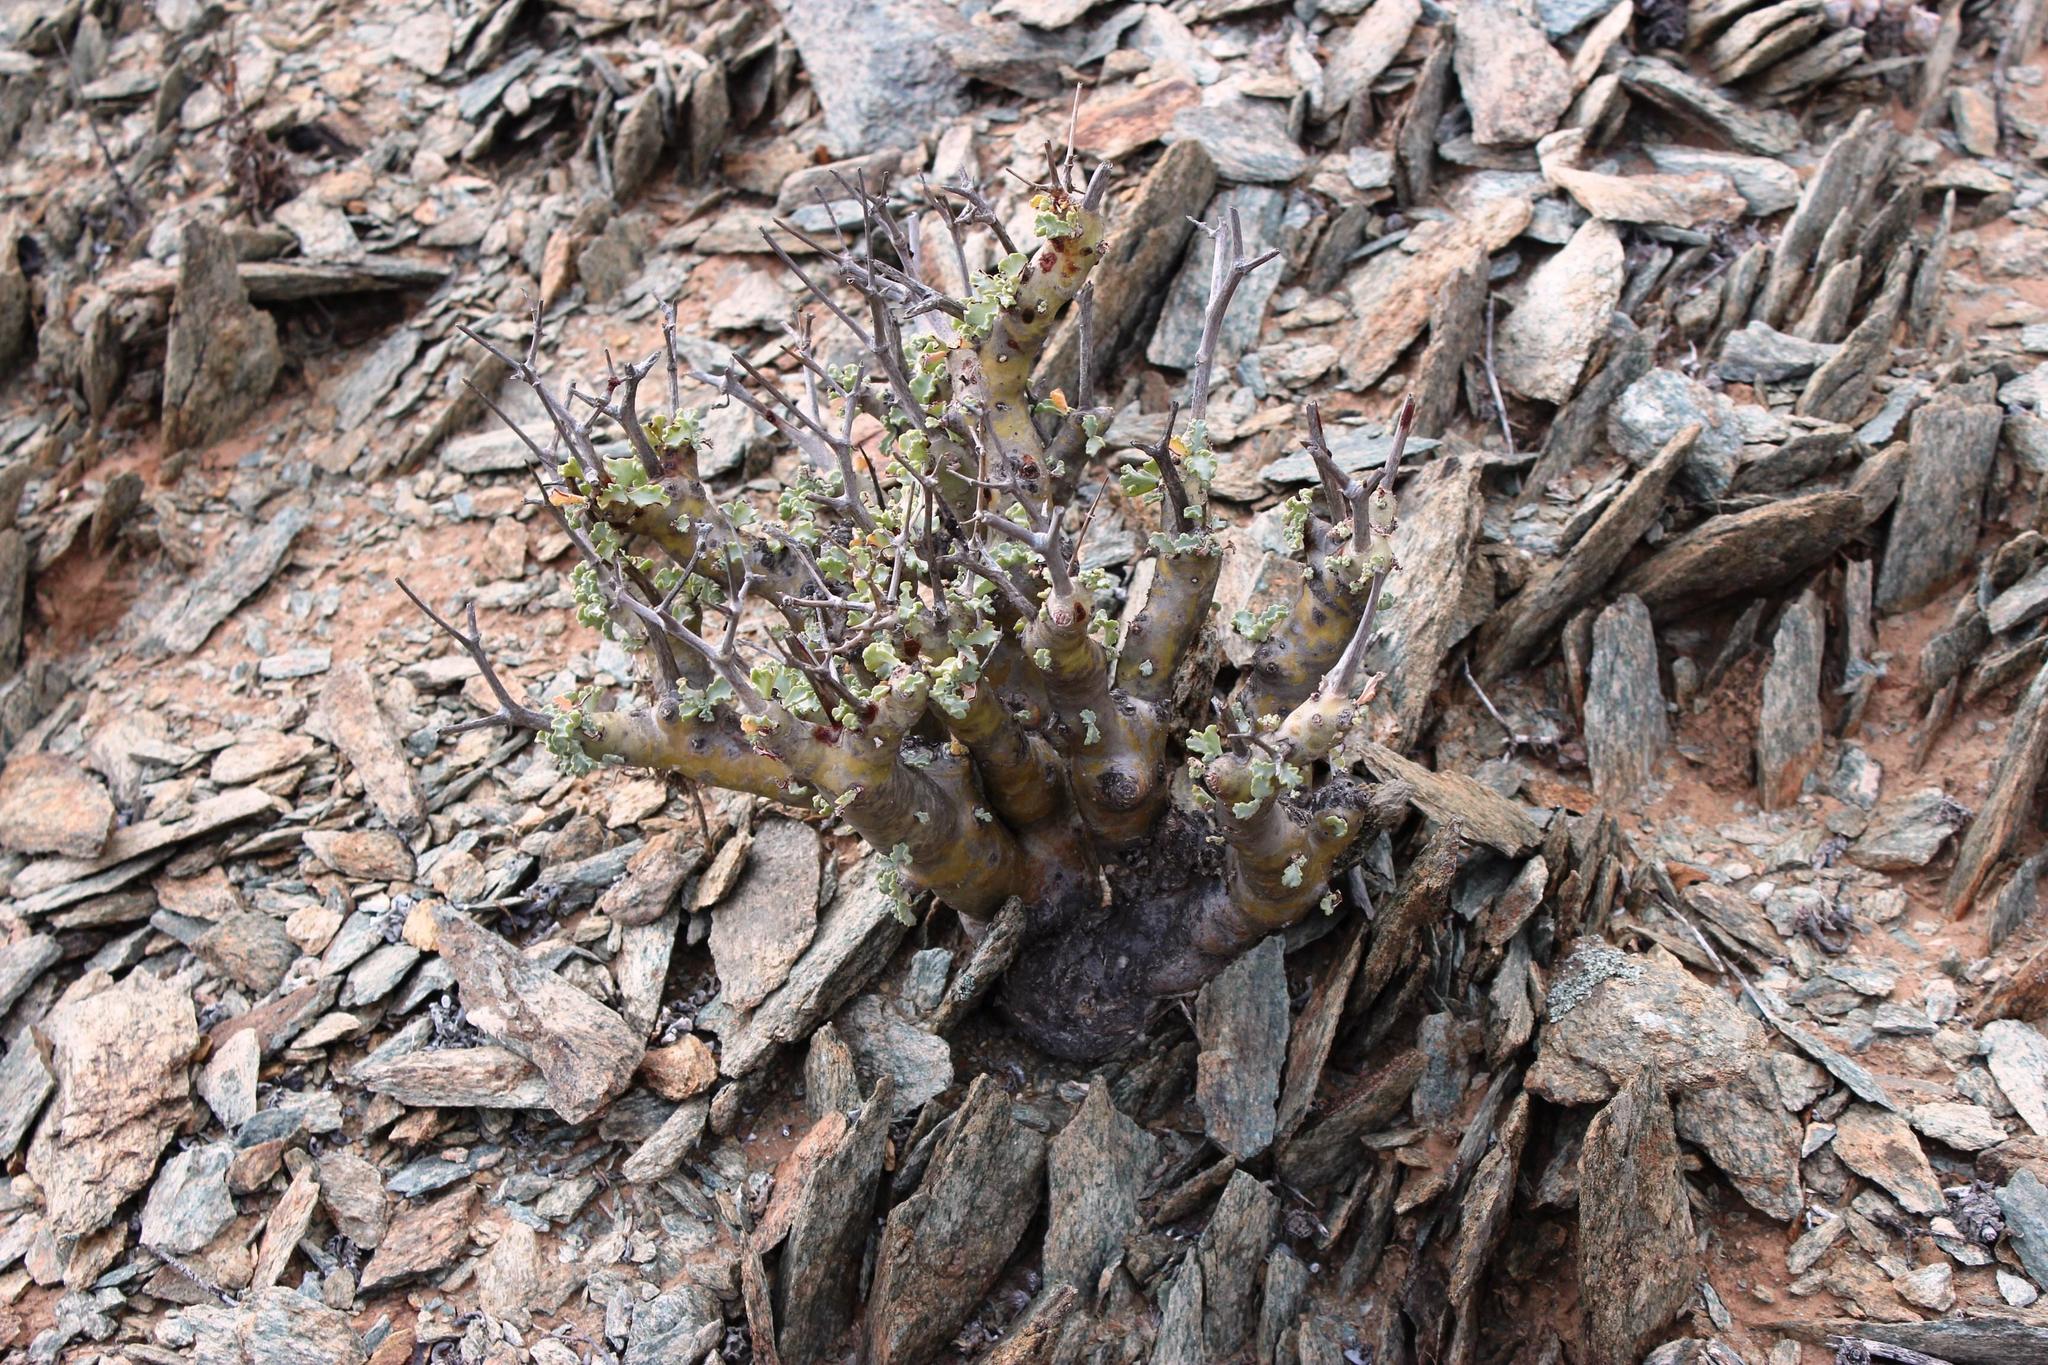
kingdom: Plantae
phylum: Tracheophyta
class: Magnoliopsida
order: Geraniales
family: Geraniaceae
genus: Pelargonium
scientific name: Pelargonium klinghardtense
